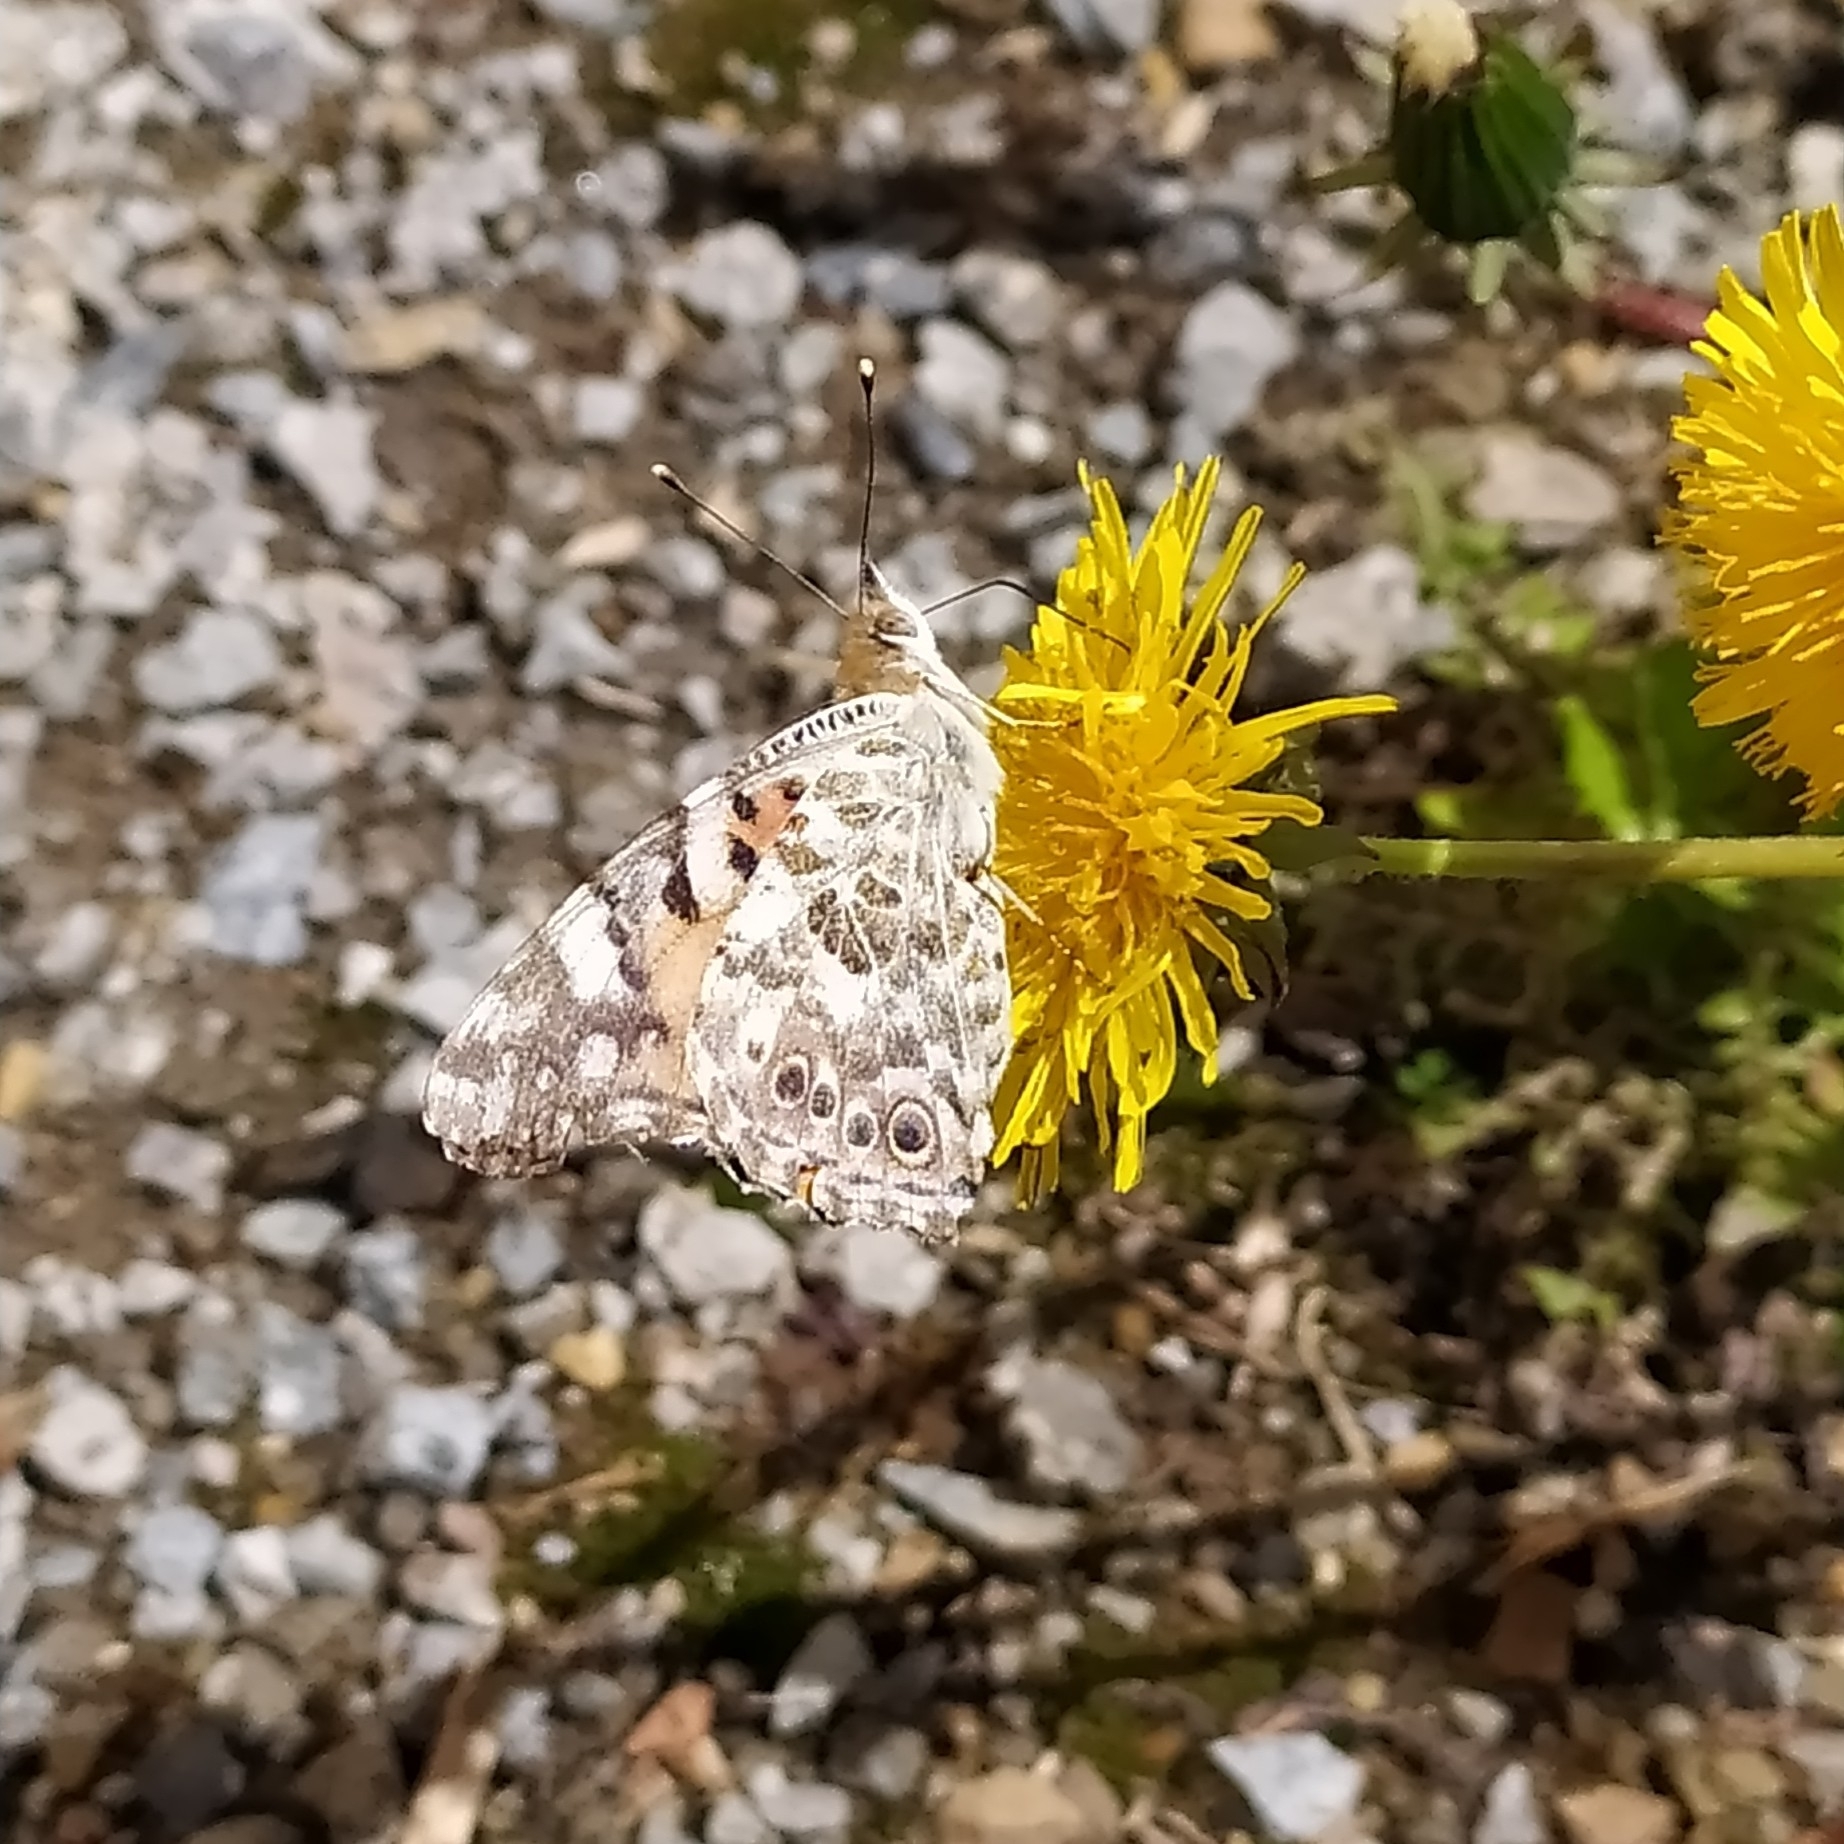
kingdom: Animalia
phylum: Arthropoda
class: Insecta
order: Lepidoptera
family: Nymphalidae
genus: Vanessa
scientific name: Vanessa cardui
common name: Painted lady
